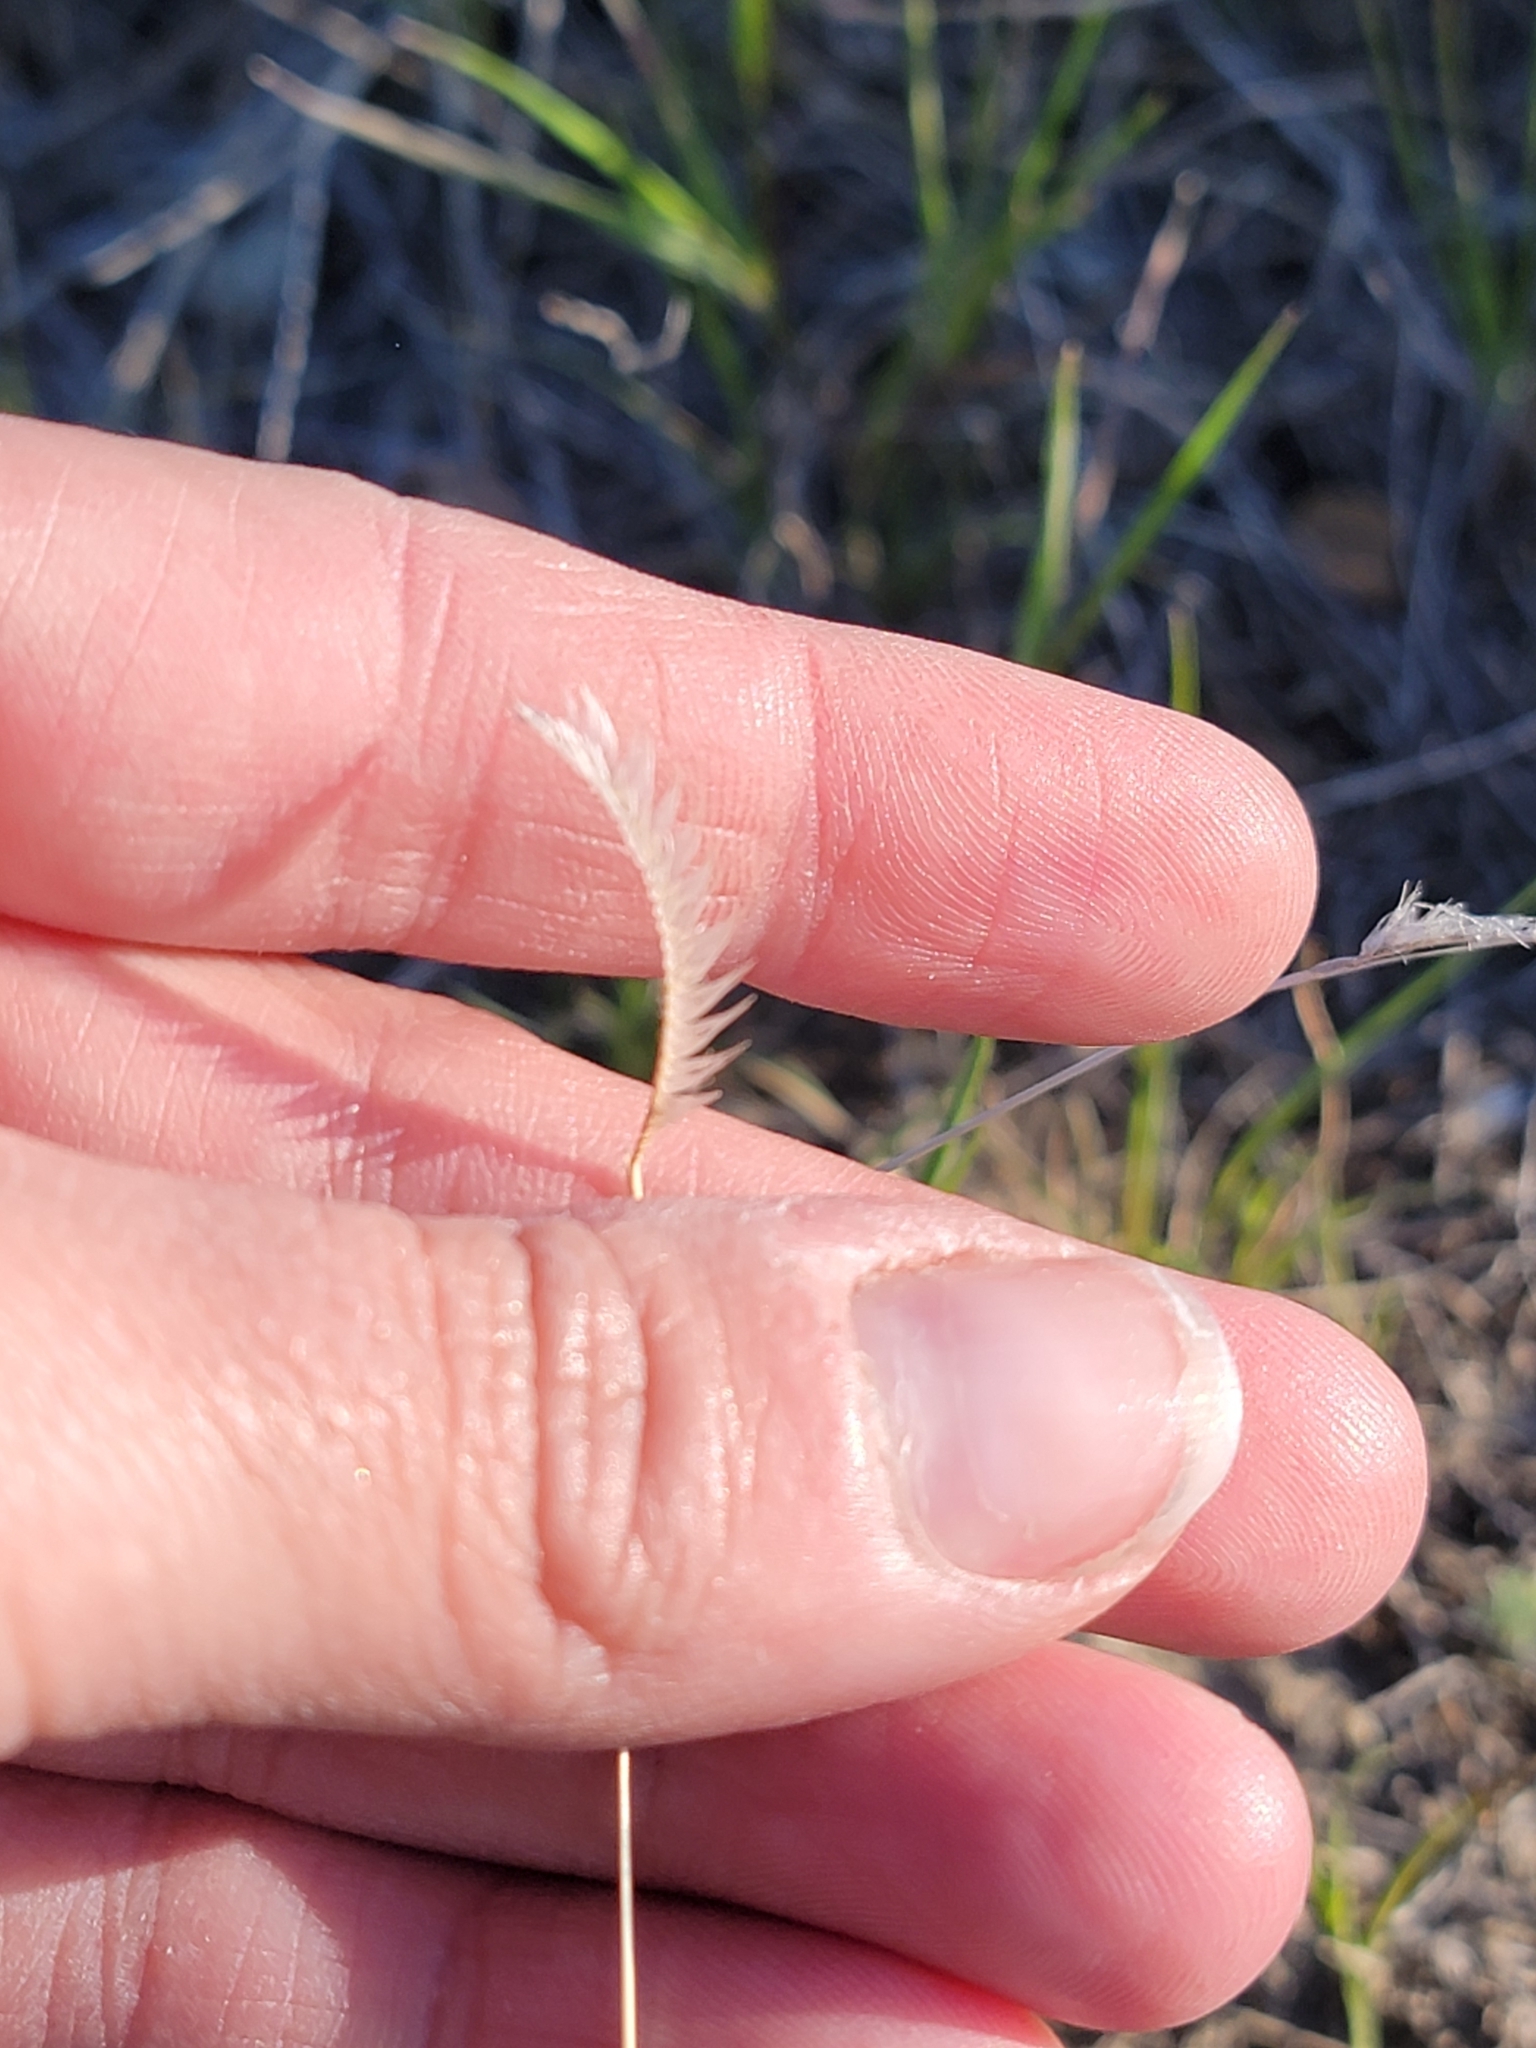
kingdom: Plantae
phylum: Tracheophyta
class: Liliopsida
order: Poales
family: Poaceae
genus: Bouteloua
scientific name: Bouteloua gracilis
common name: Blue grama
